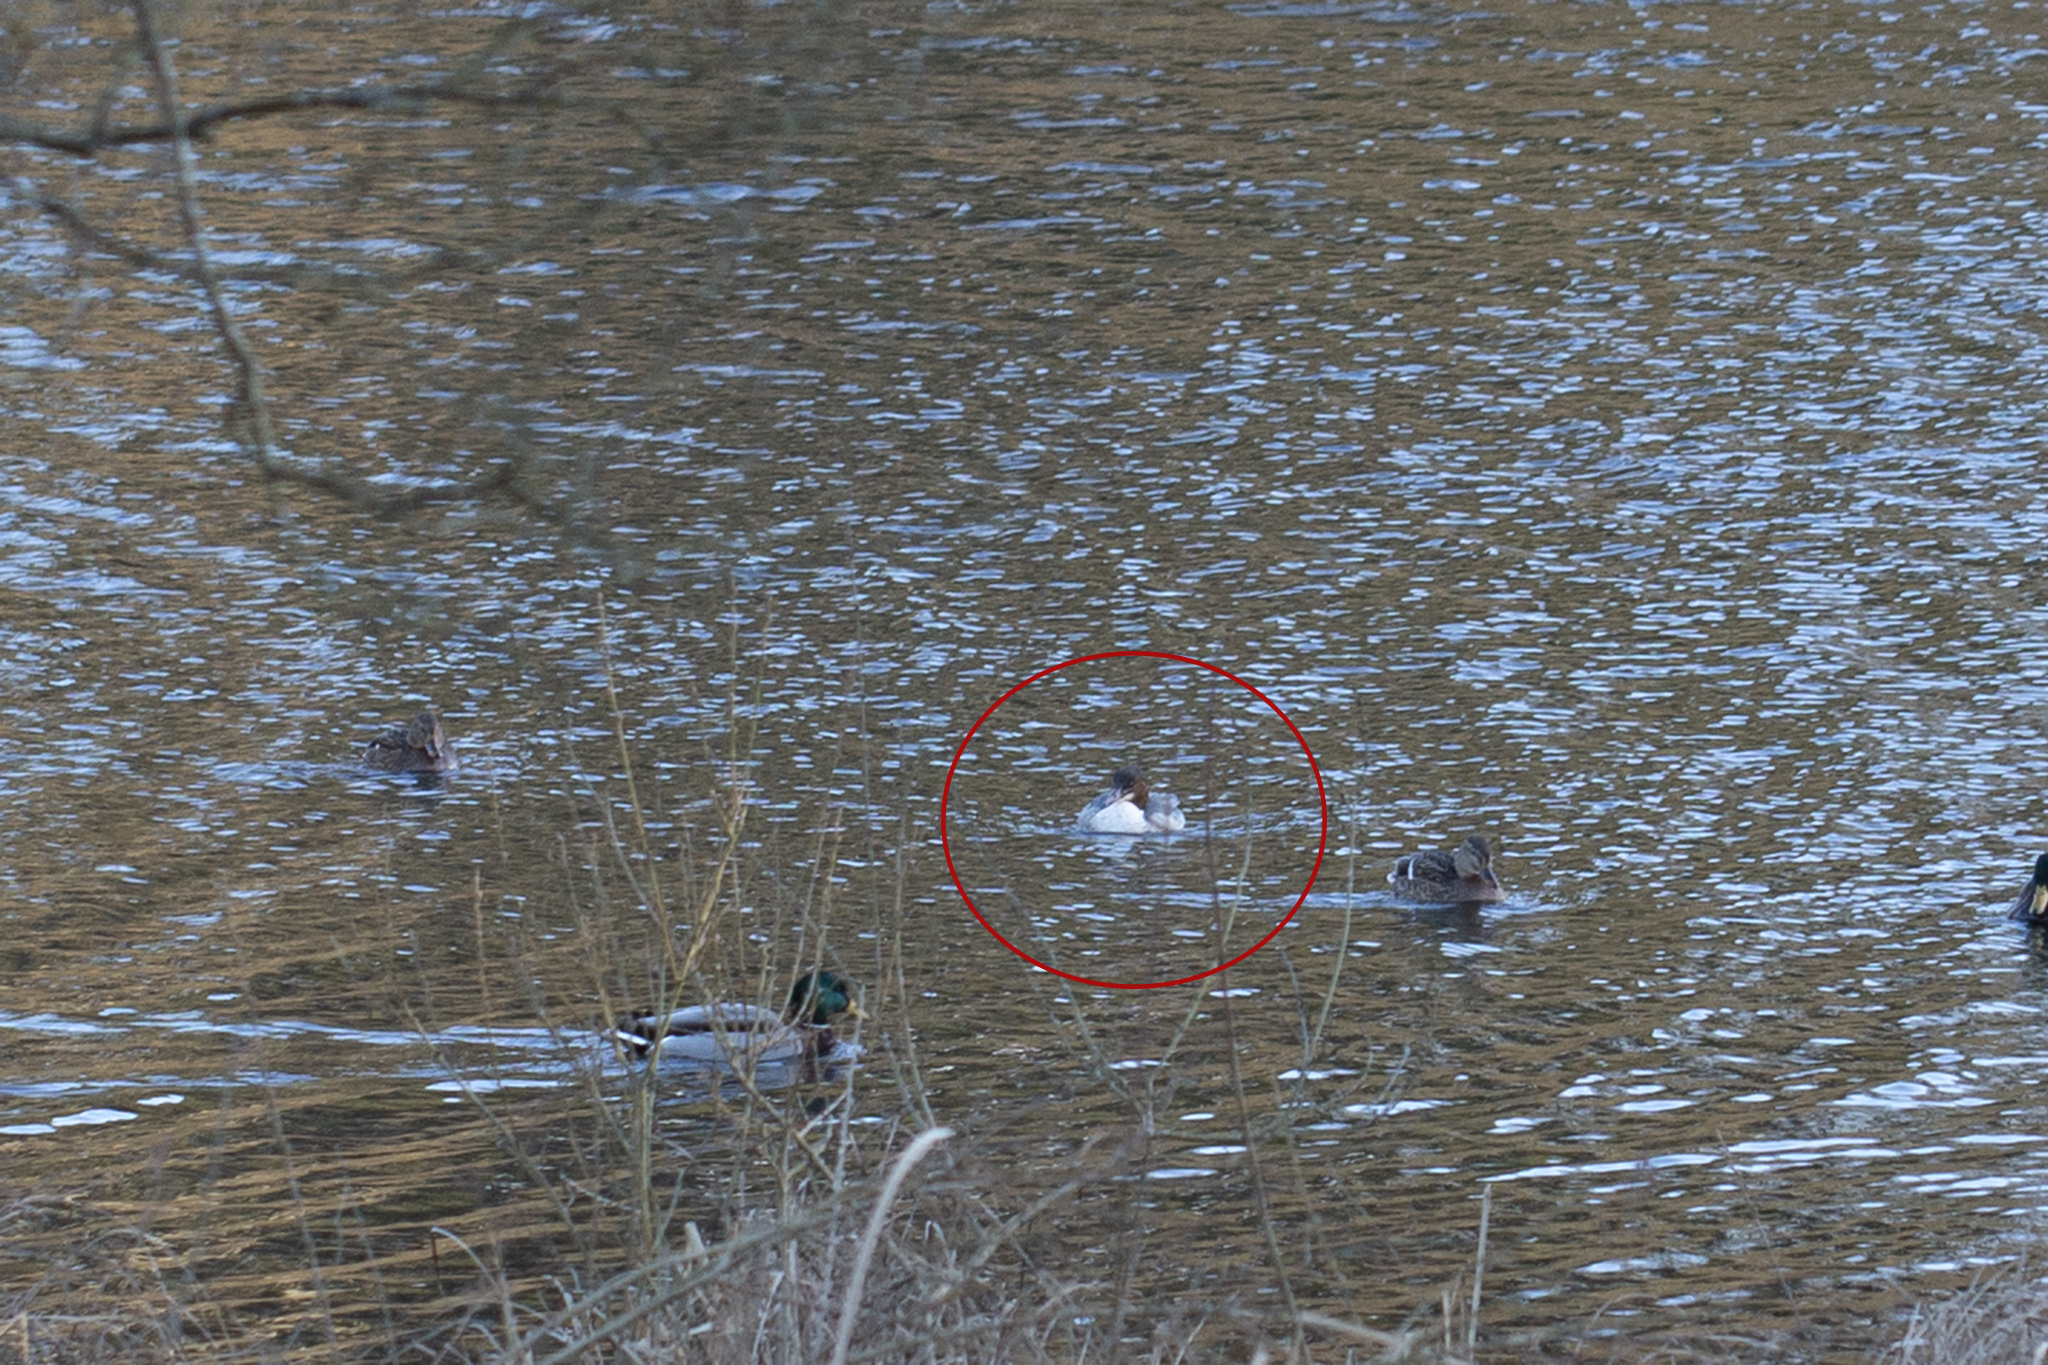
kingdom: Animalia
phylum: Chordata
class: Aves
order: Anseriformes
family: Anatidae
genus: Mergus
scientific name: Mergus merganser
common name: Common merganser
